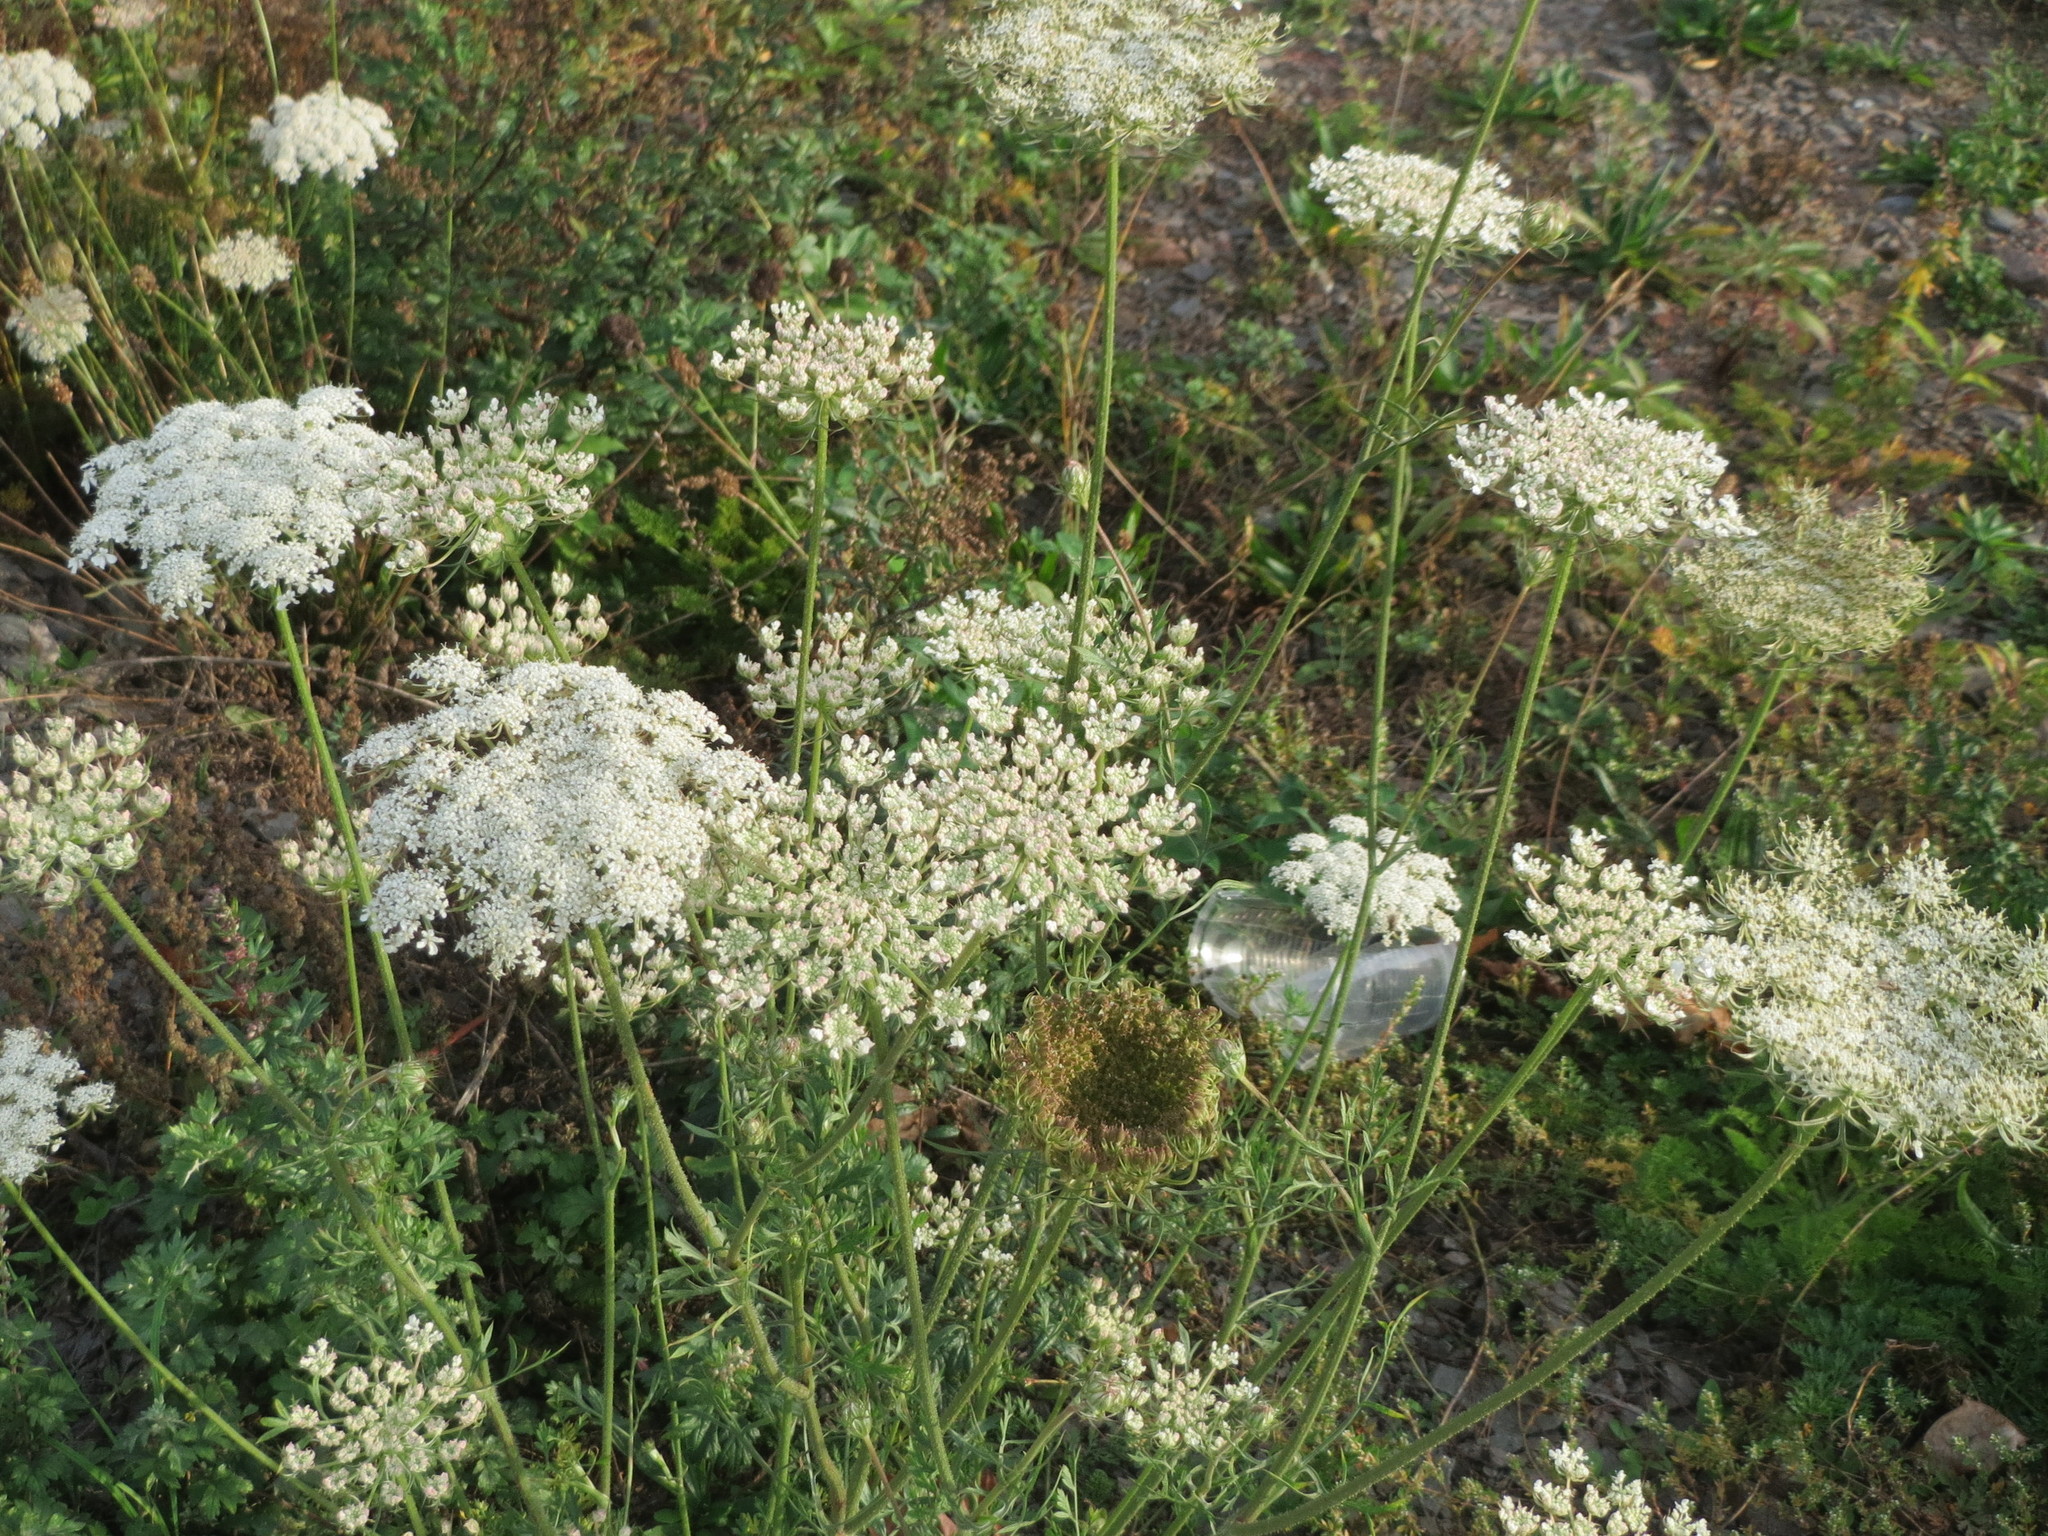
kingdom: Plantae
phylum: Tracheophyta
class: Magnoliopsida
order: Apiales
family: Apiaceae
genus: Daucus
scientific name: Daucus carota
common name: Wild carrot
